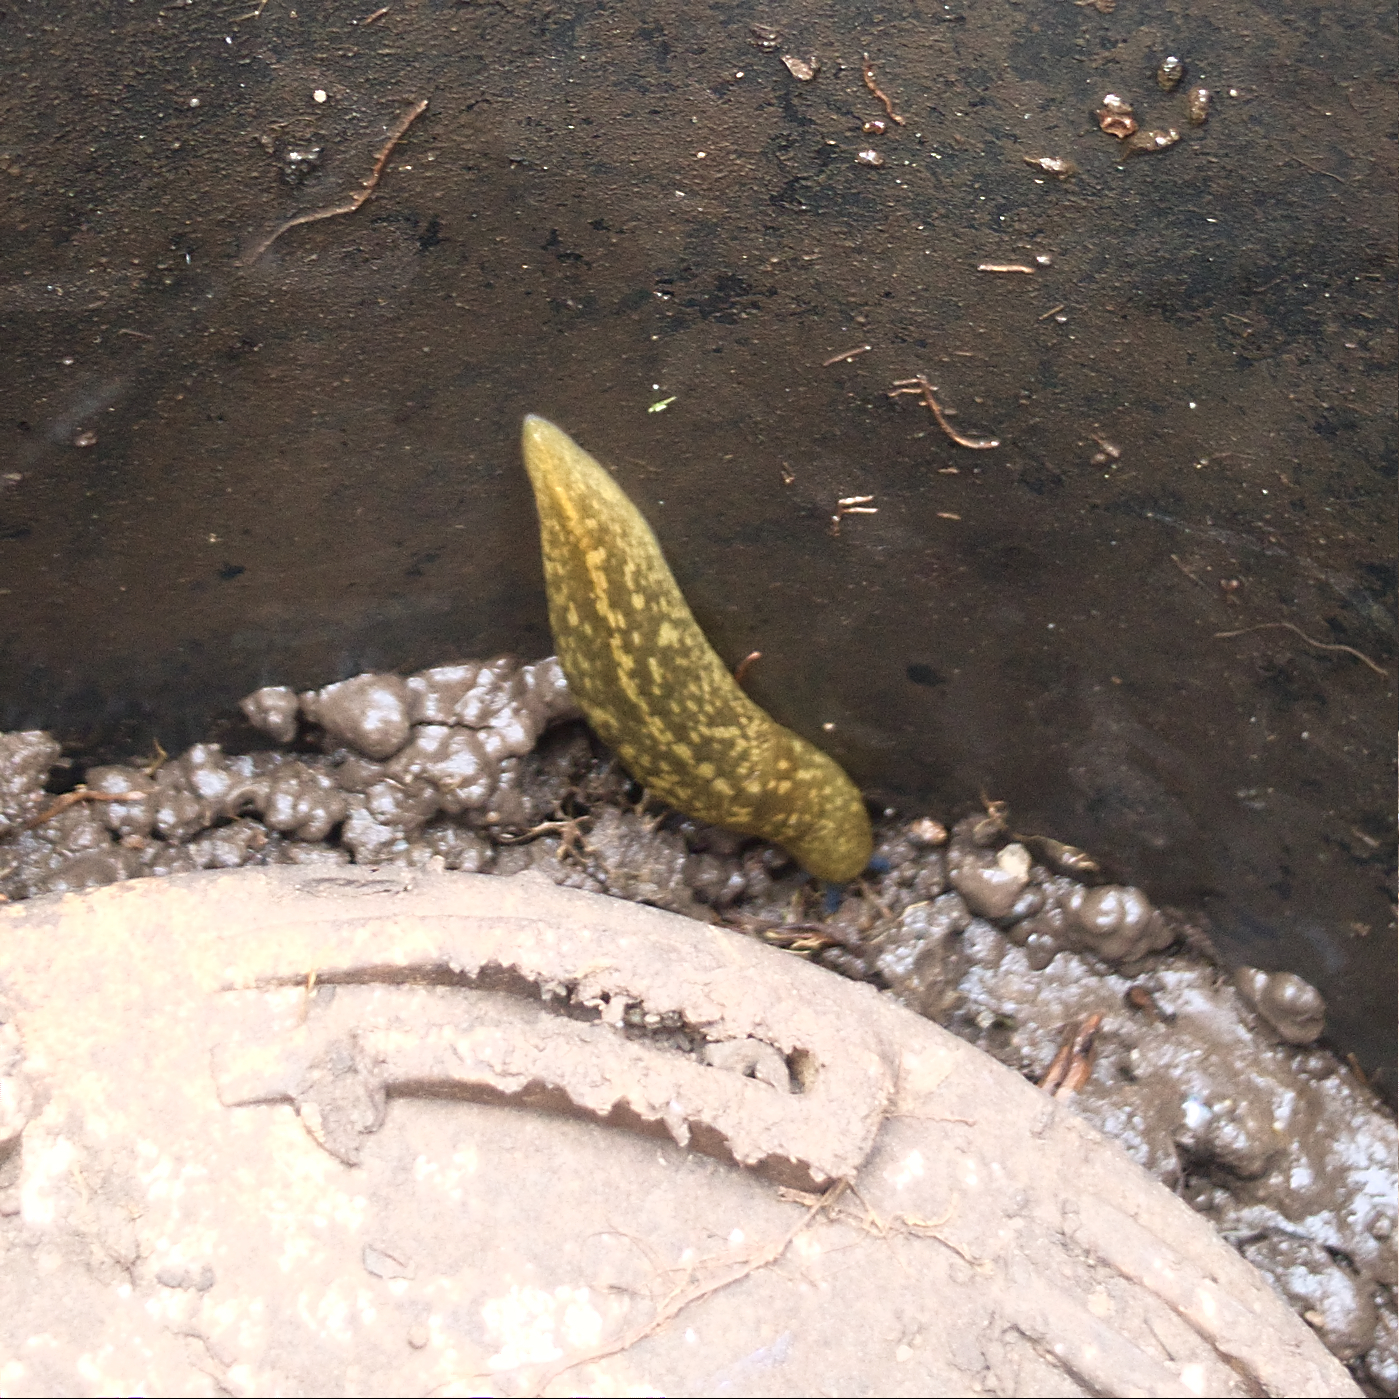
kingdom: Animalia
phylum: Mollusca
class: Gastropoda
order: Stylommatophora
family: Limacidae
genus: Limacus
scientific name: Limacus flavus
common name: Yellow gardenslug
